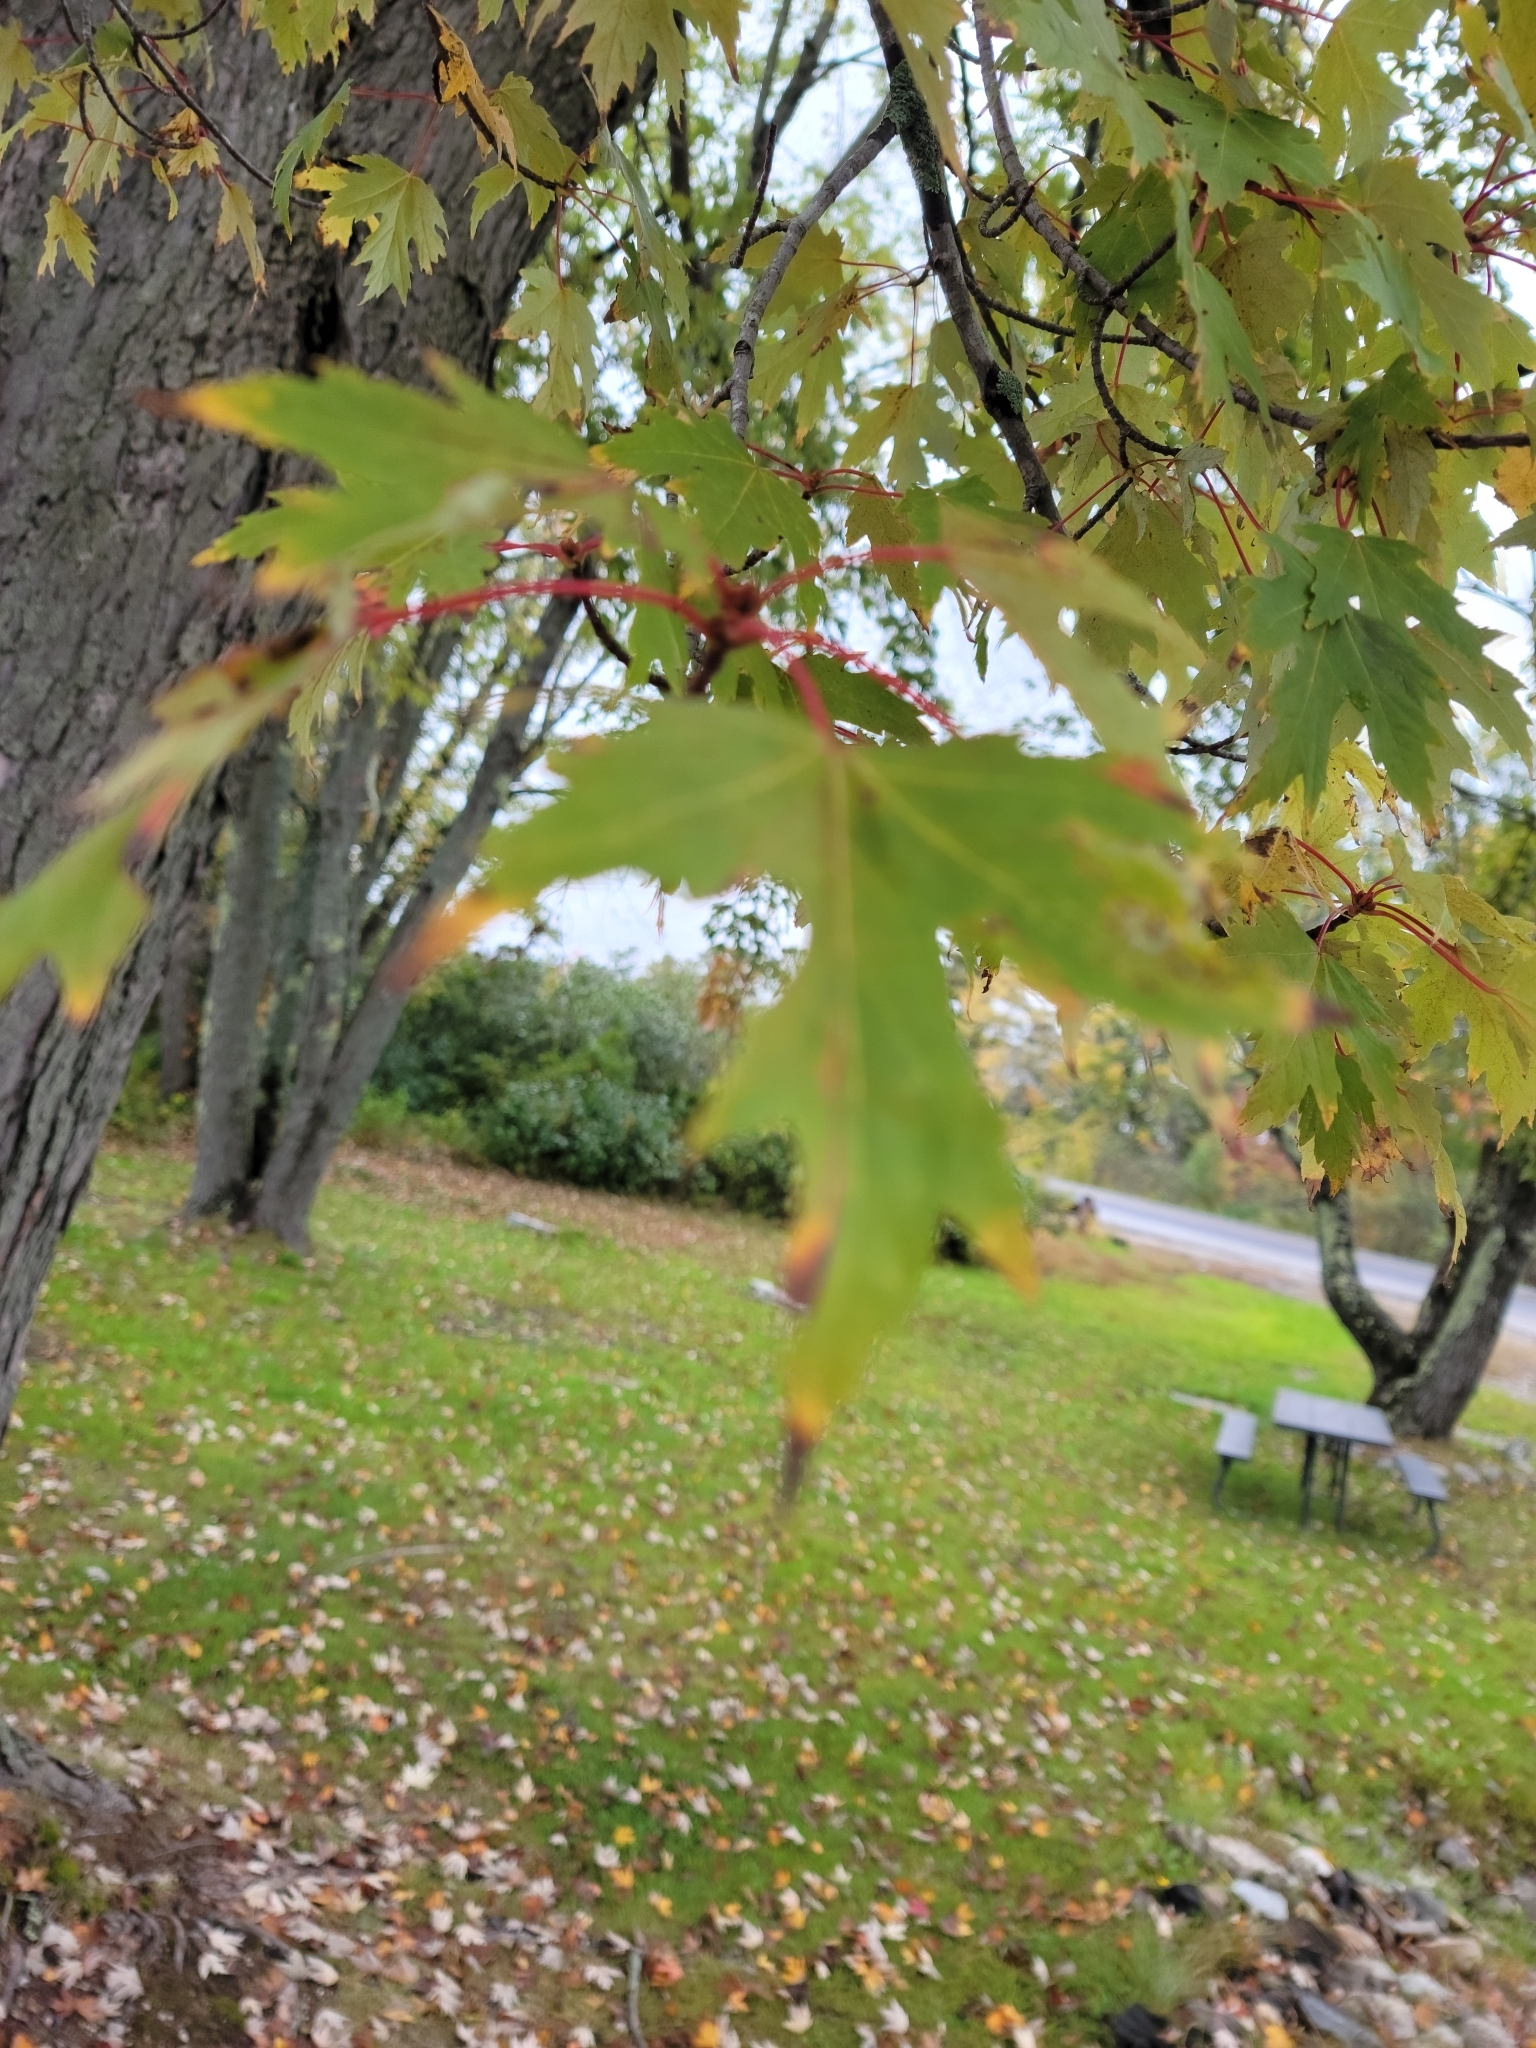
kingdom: Plantae
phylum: Tracheophyta
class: Magnoliopsida
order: Sapindales
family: Sapindaceae
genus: Acer
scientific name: Acer saccharinum
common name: Silver maple
